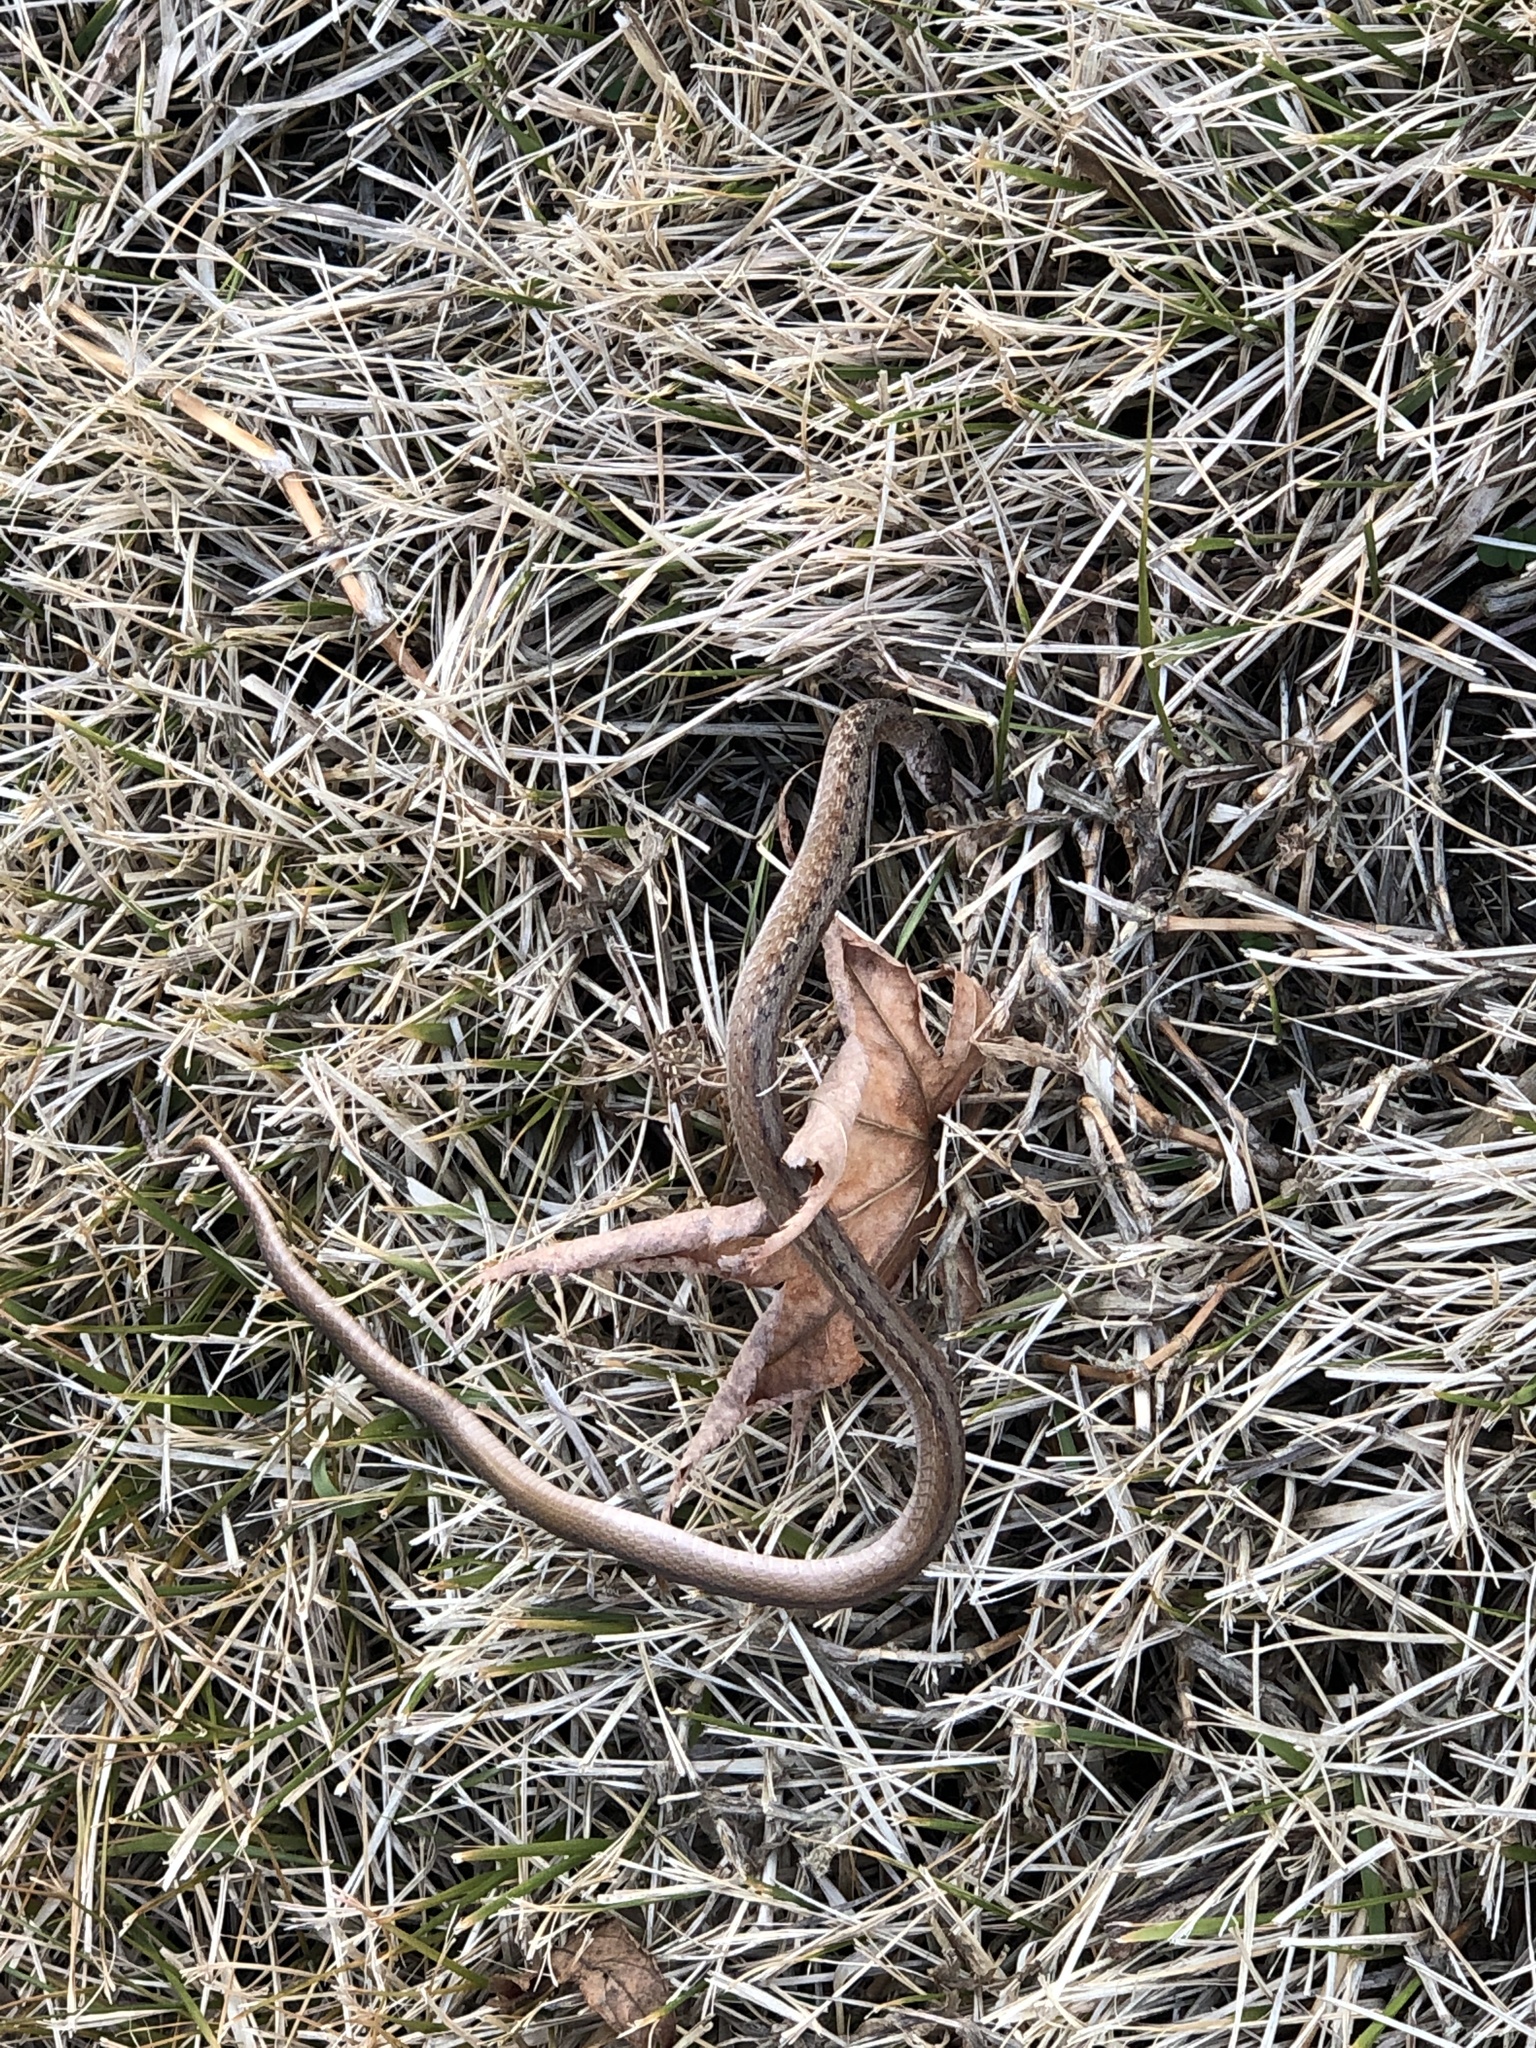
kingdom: Animalia
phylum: Chordata
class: Squamata
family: Colubridae
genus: Storeria
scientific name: Storeria dekayi
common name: (dekay’s) brown snake
